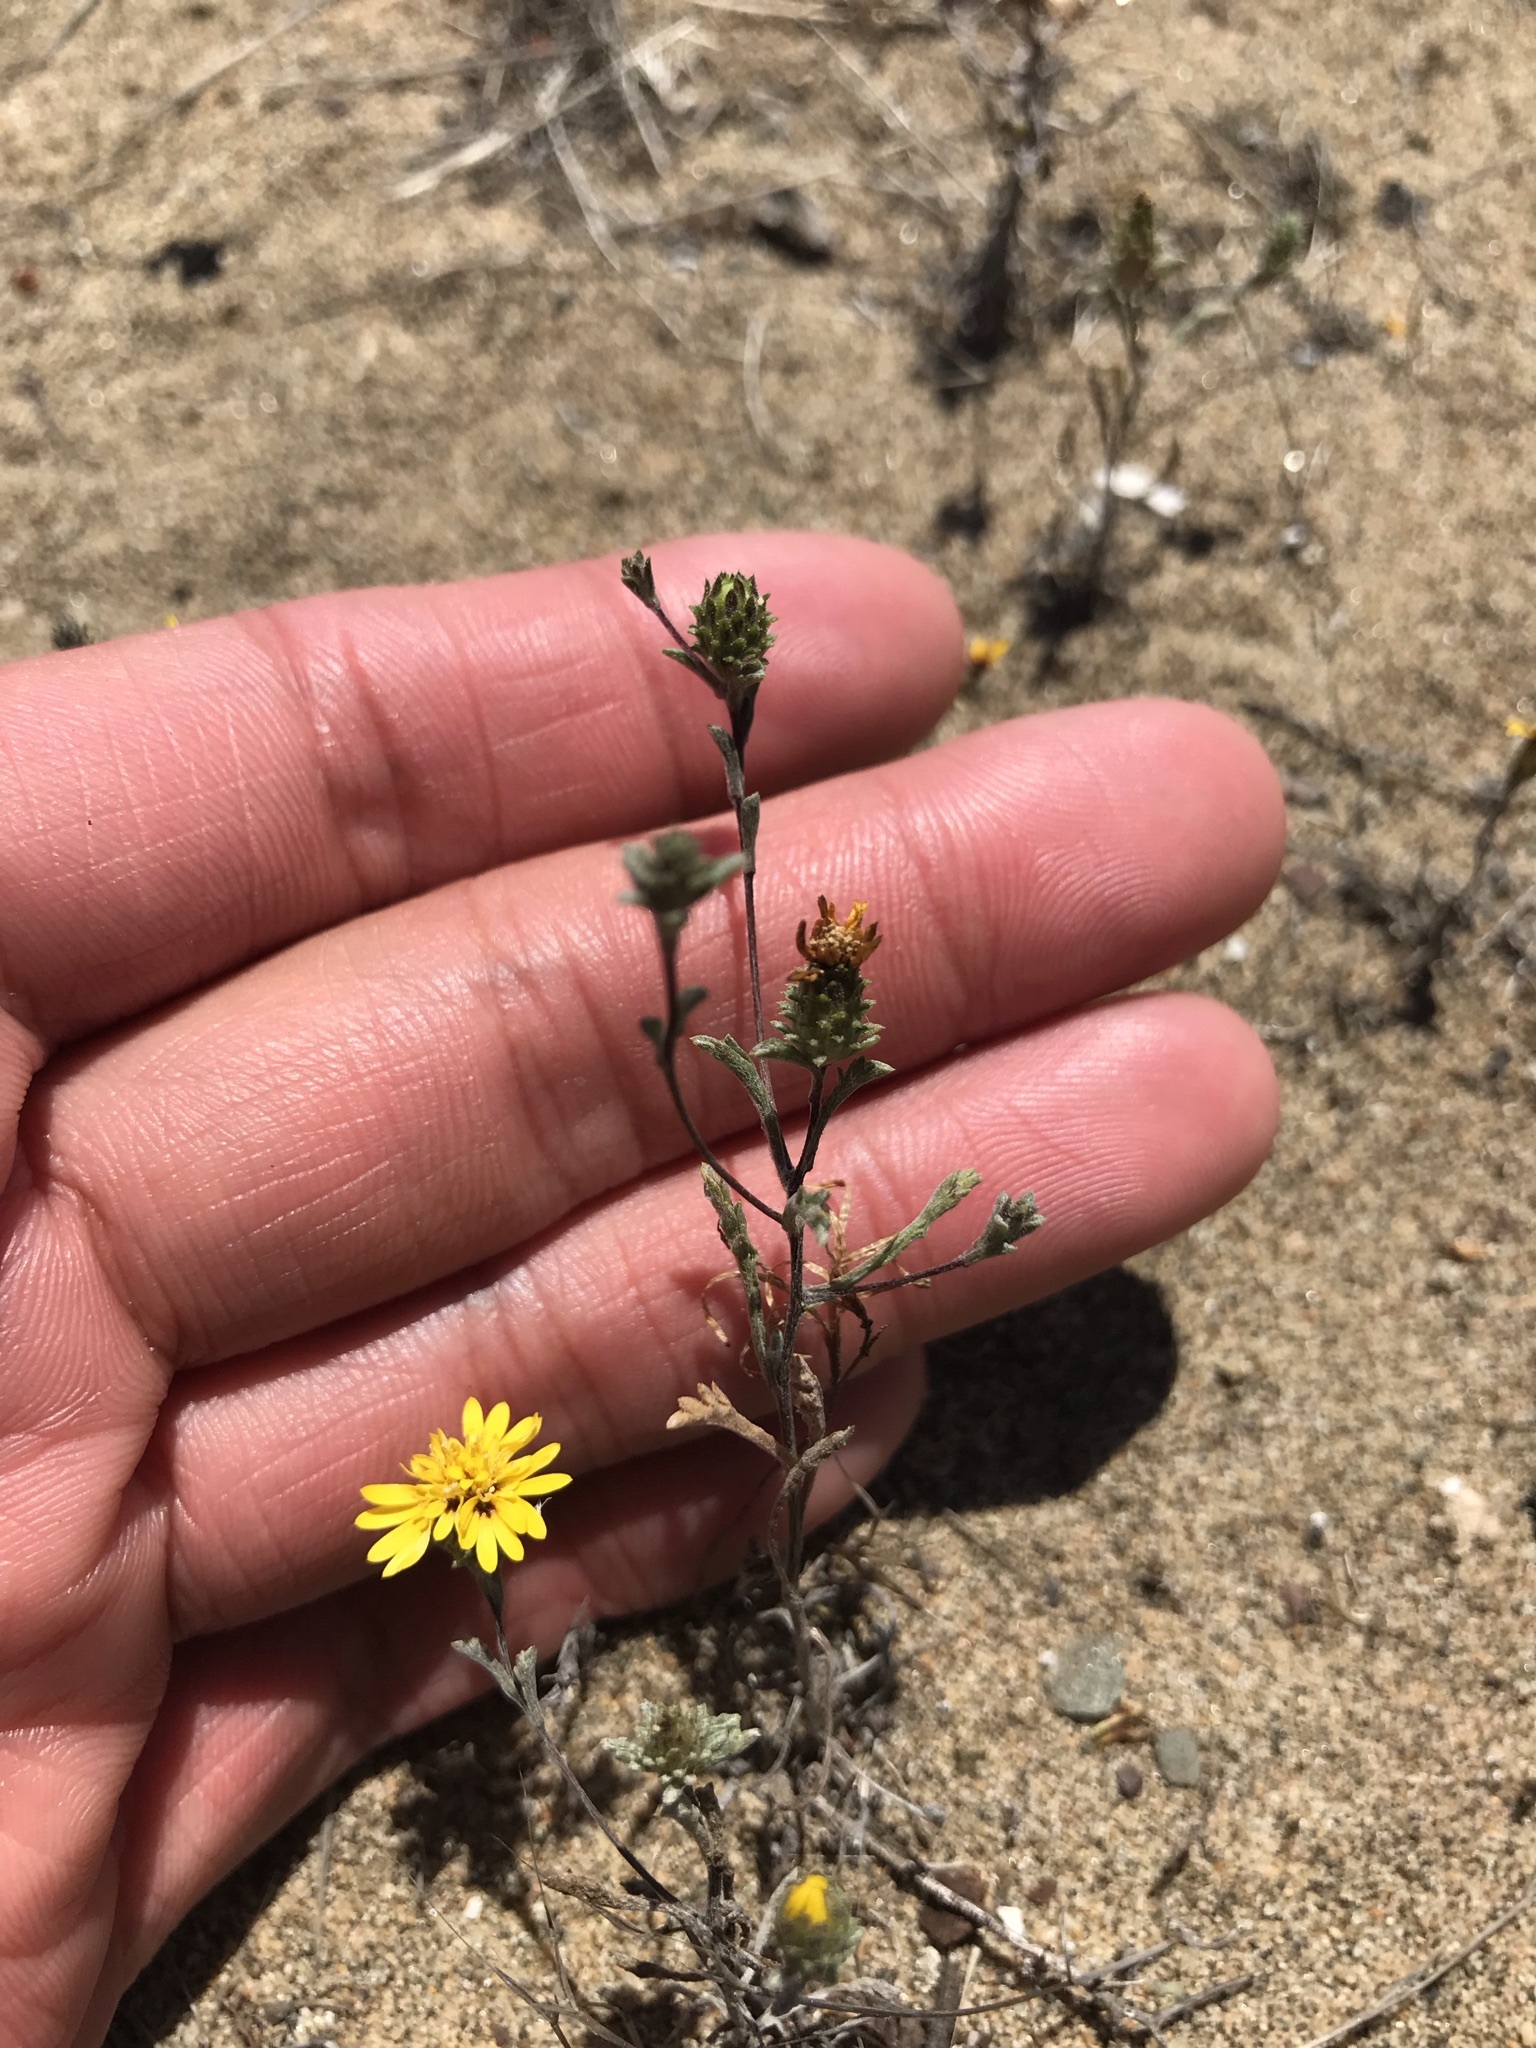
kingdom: Plantae
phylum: Tracheophyta
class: Magnoliopsida
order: Asterales
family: Asteraceae
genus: Lessingia
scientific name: Lessingia germanorum
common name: San francisco lessingia
